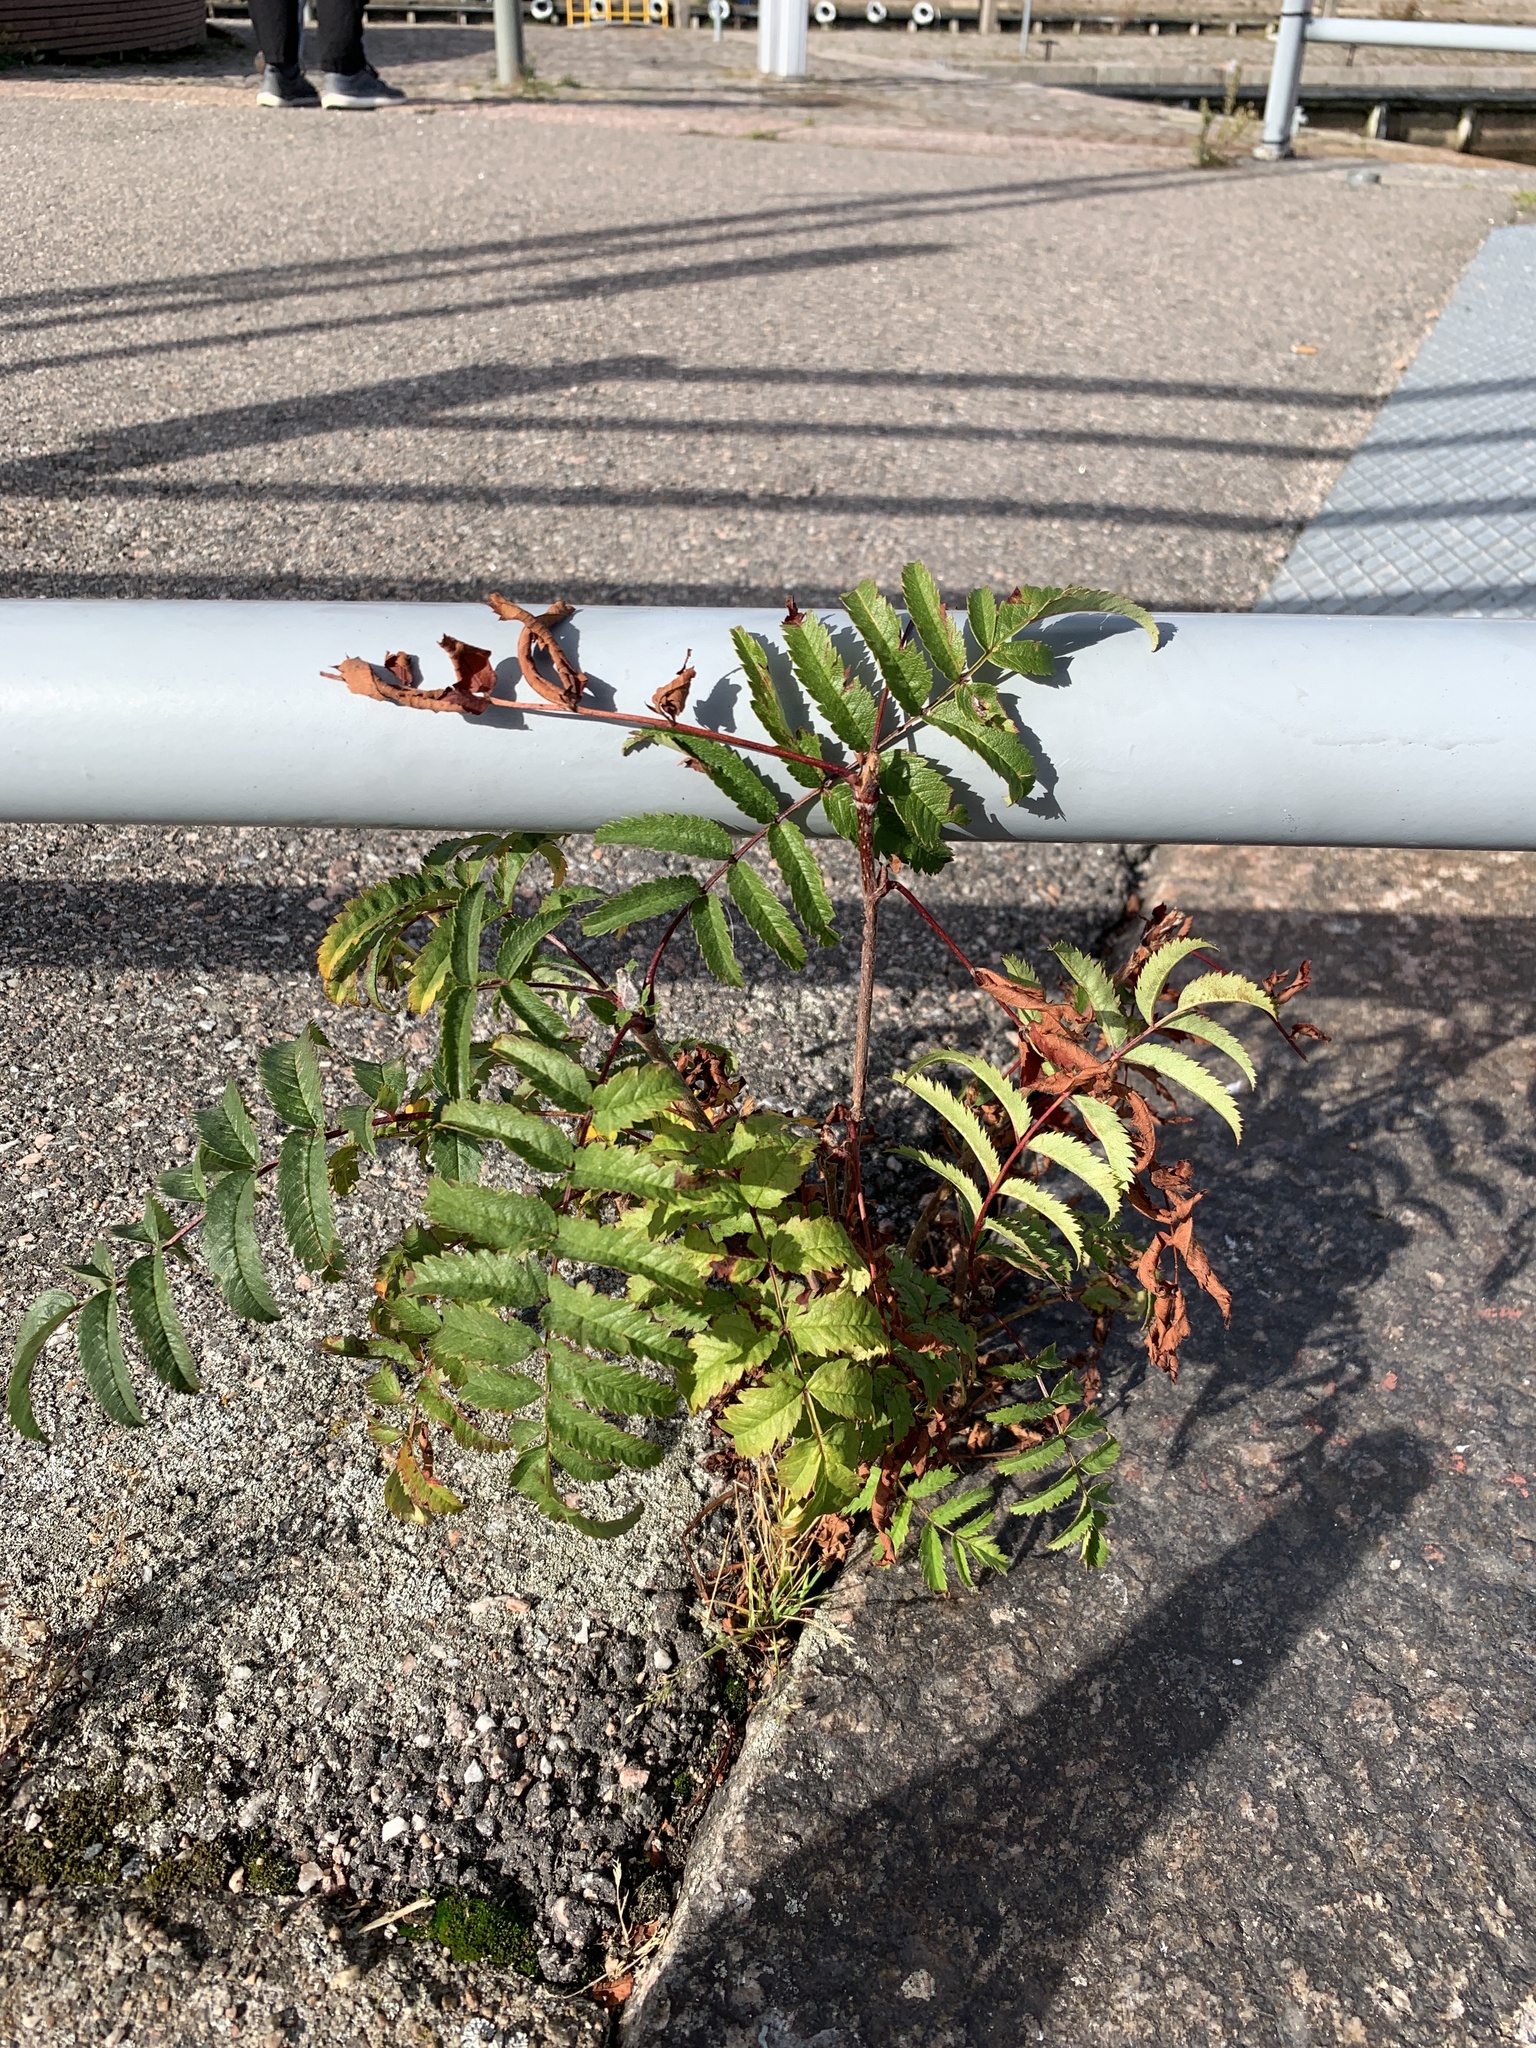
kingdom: Plantae
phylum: Tracheophyta
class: Magnoliopsida
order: Rosales
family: Rosaceae
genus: Sorbus
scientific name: Sorbus aucuparia
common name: Rowan
